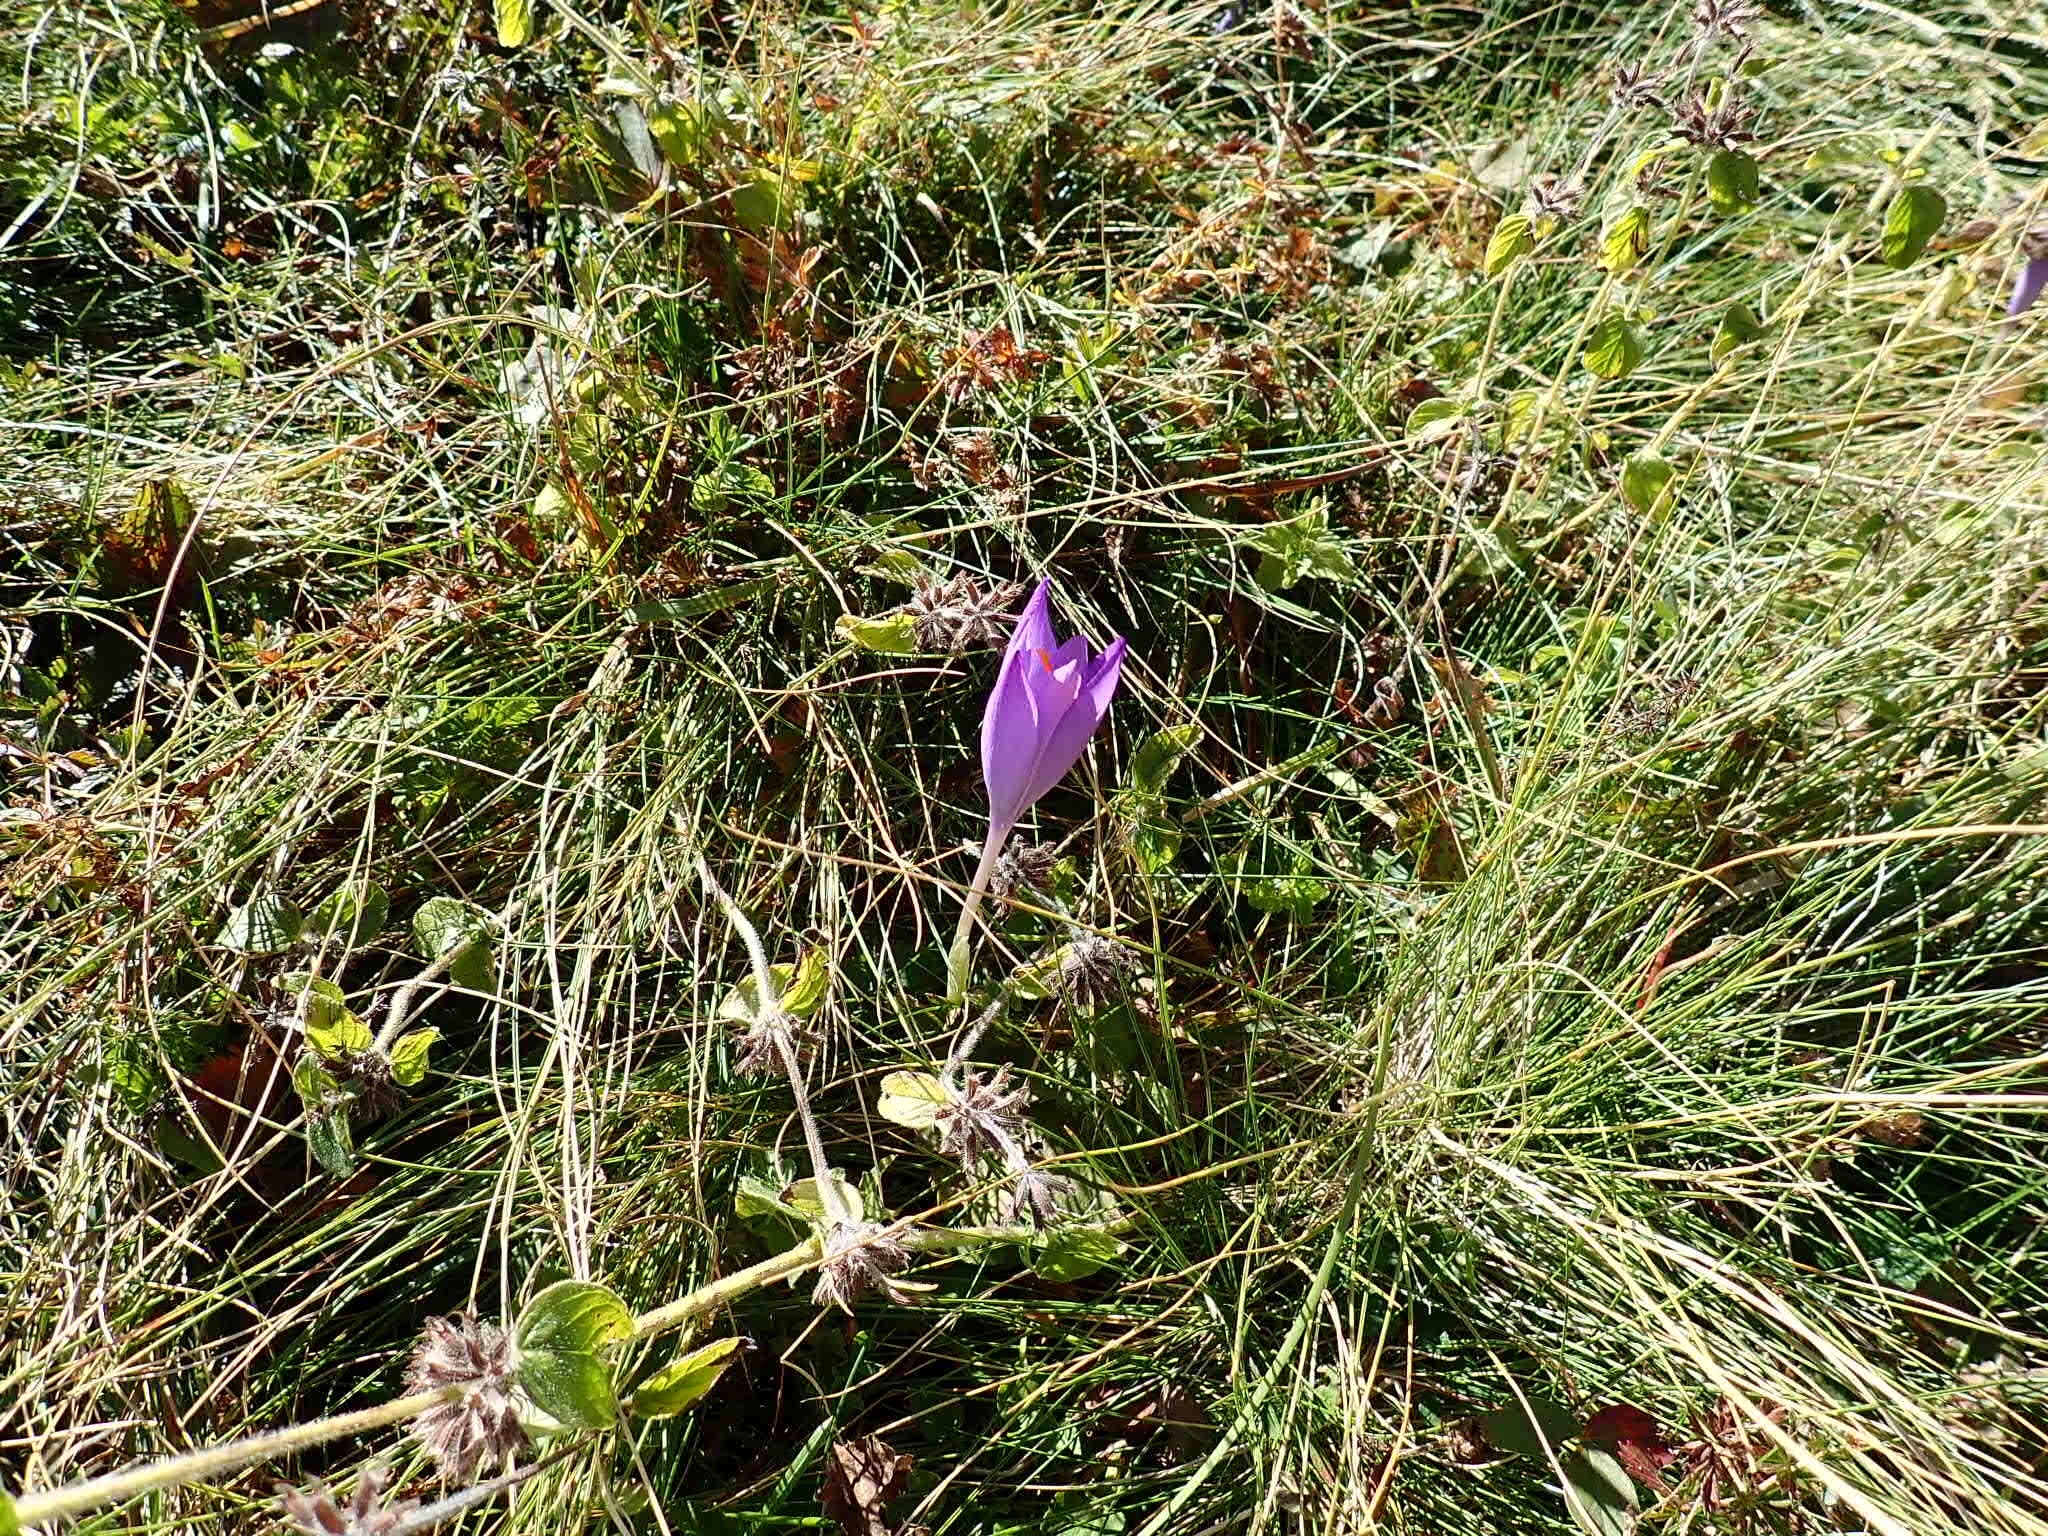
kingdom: Plantae
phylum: Tracheophyta
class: Liliopsida
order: Asparagales
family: Iridaceae
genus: Crocus
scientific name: Crocus nudiflorus
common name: Autumn crocus
